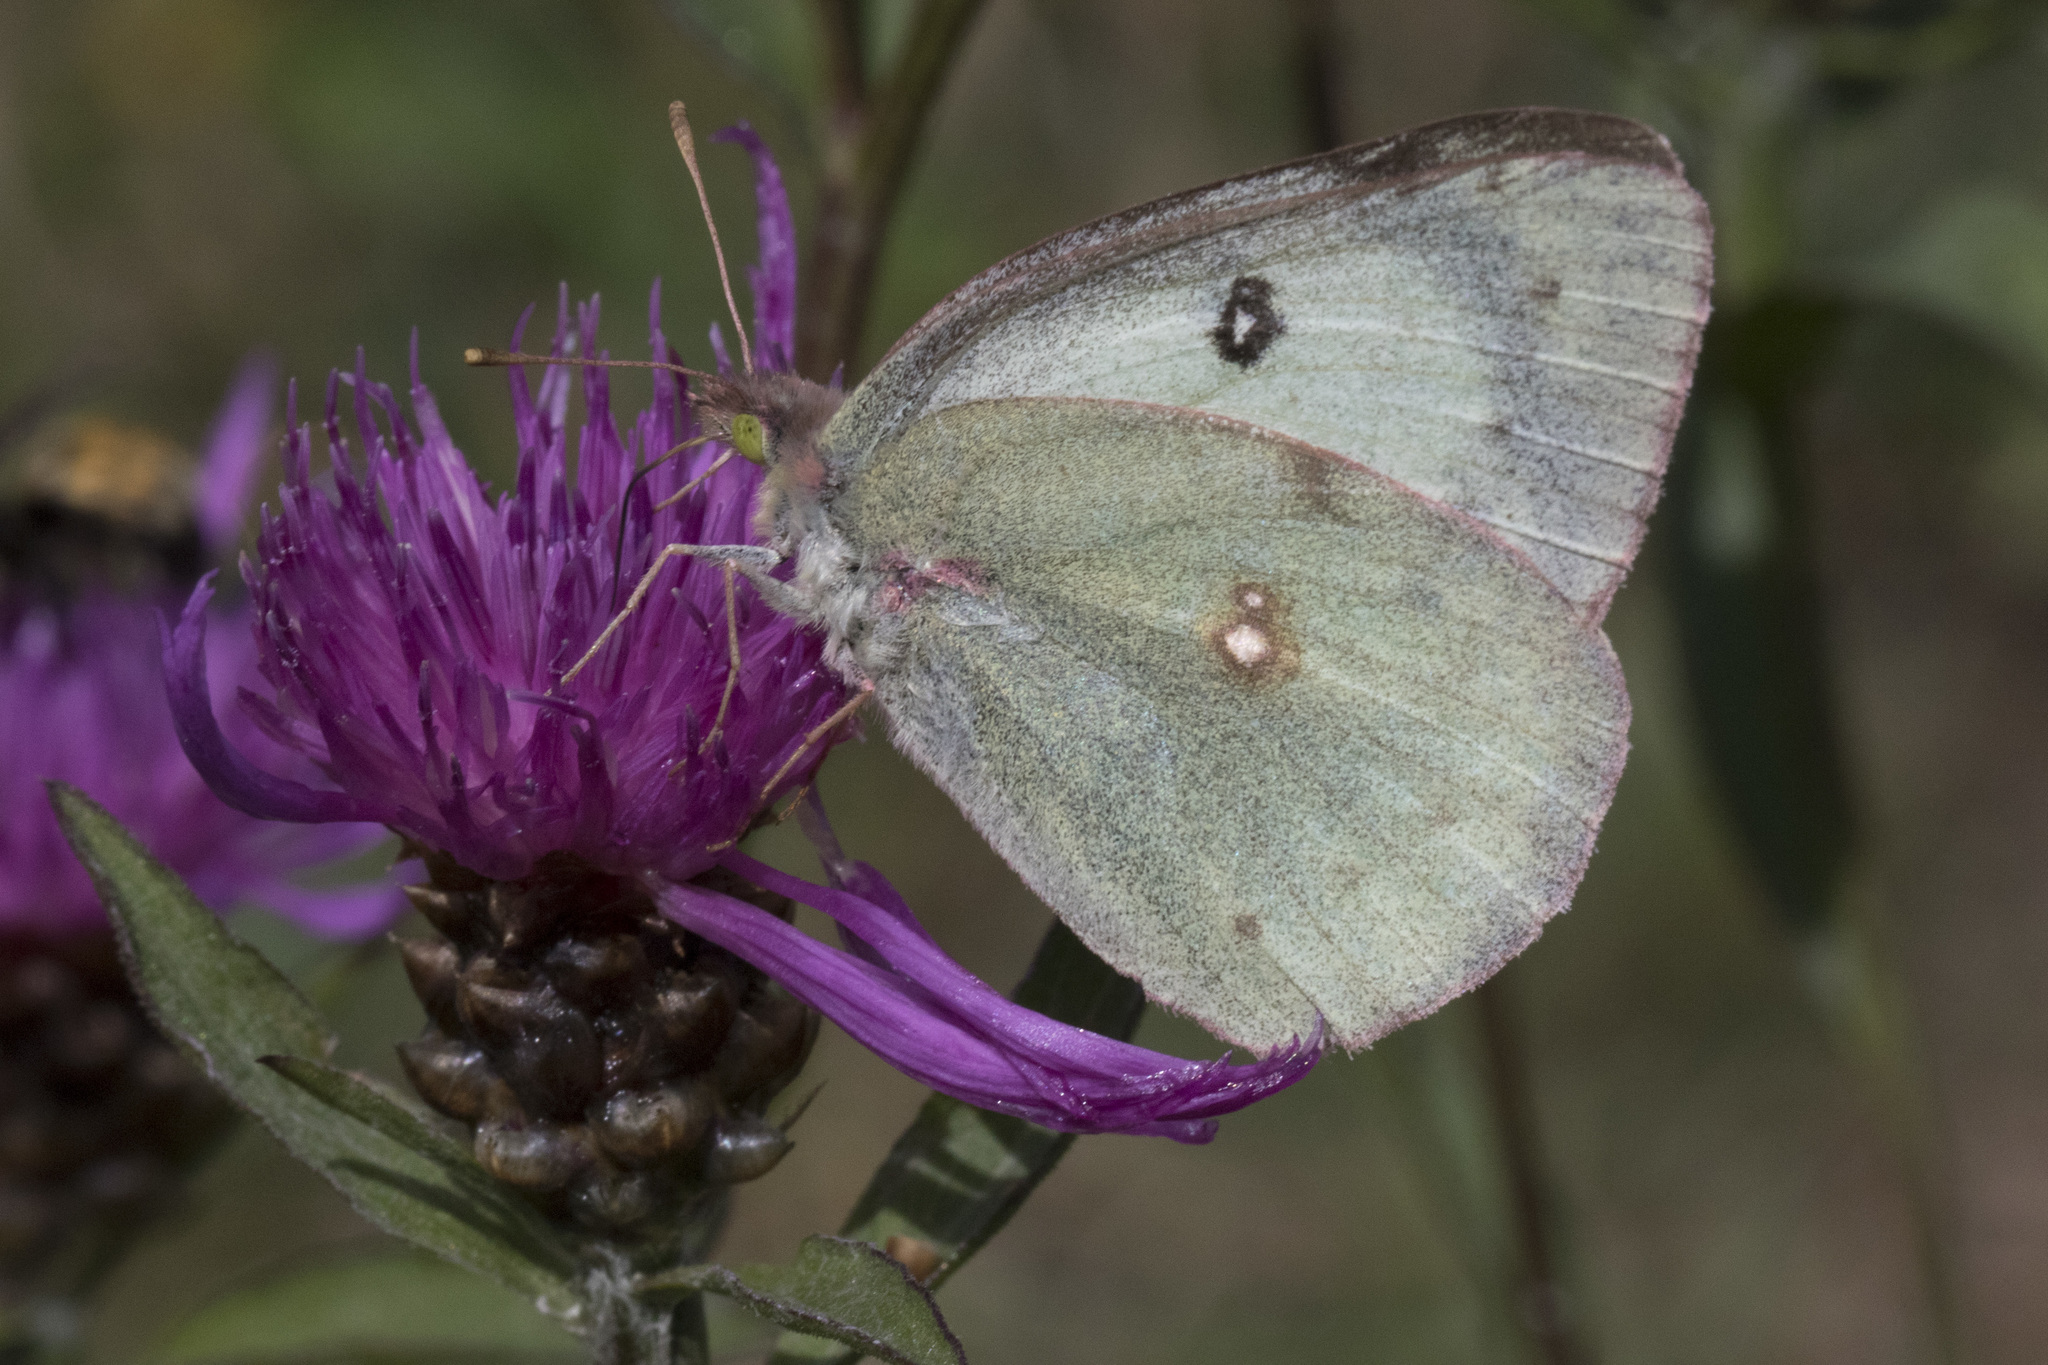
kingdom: Animalia
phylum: Arthropoda
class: Insecta
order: Lepidoptera
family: Pieridae
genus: Colias
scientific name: Colias philodice
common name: Clouded sulphur
